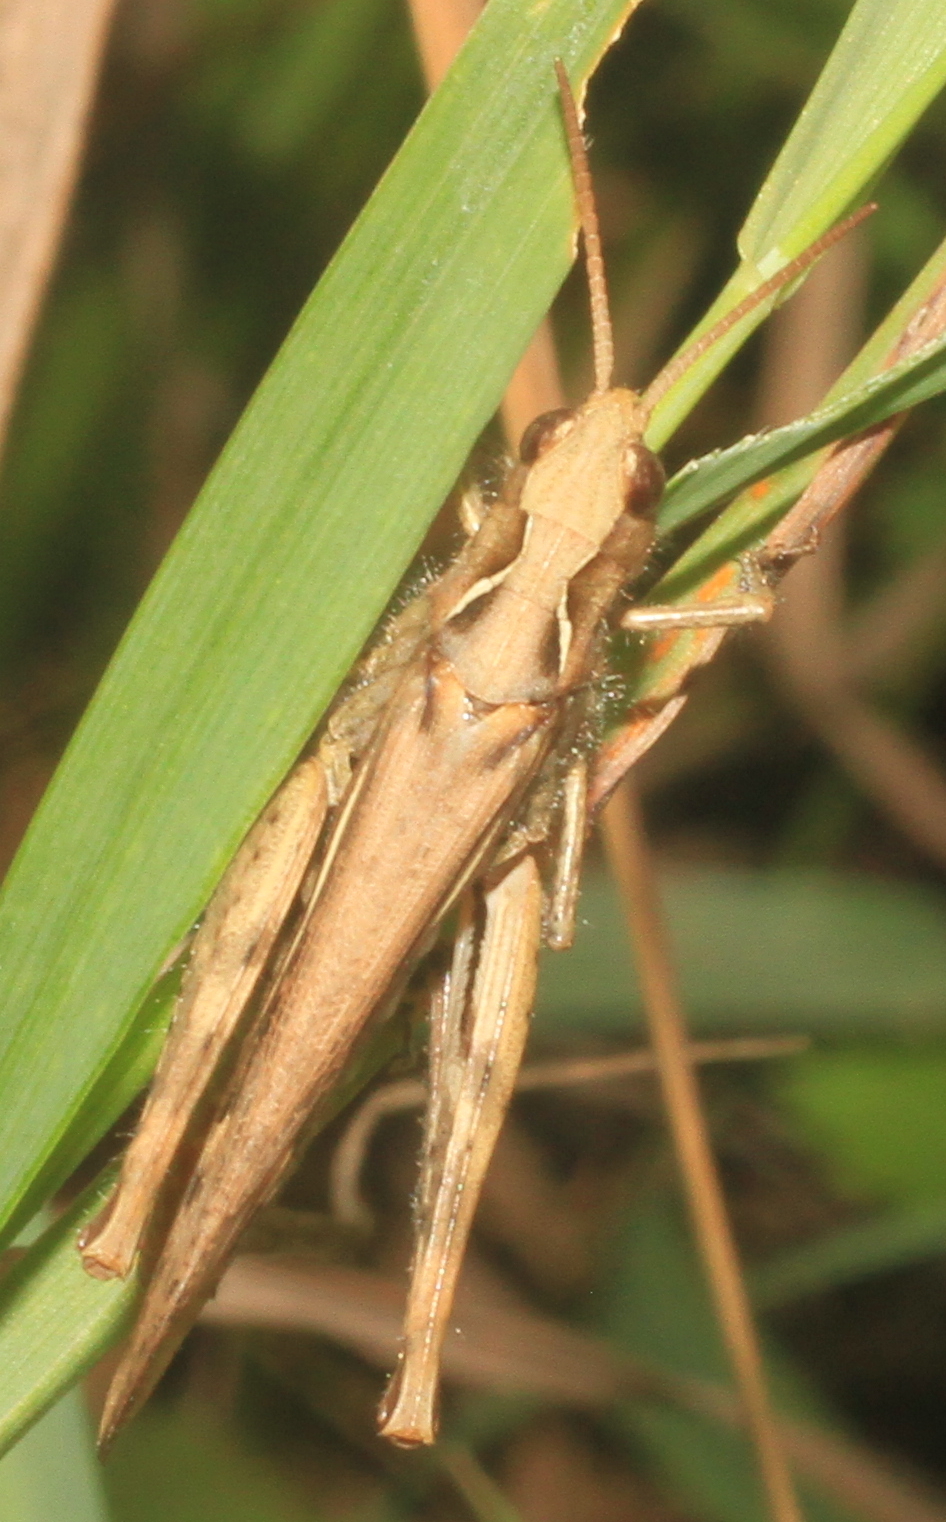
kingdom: Animalia
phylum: Arthropoda
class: Insecta
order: Orthoptera
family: Acrididae
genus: Chorthippus
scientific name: Chorthippus brunneus
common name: Field grasshopper
